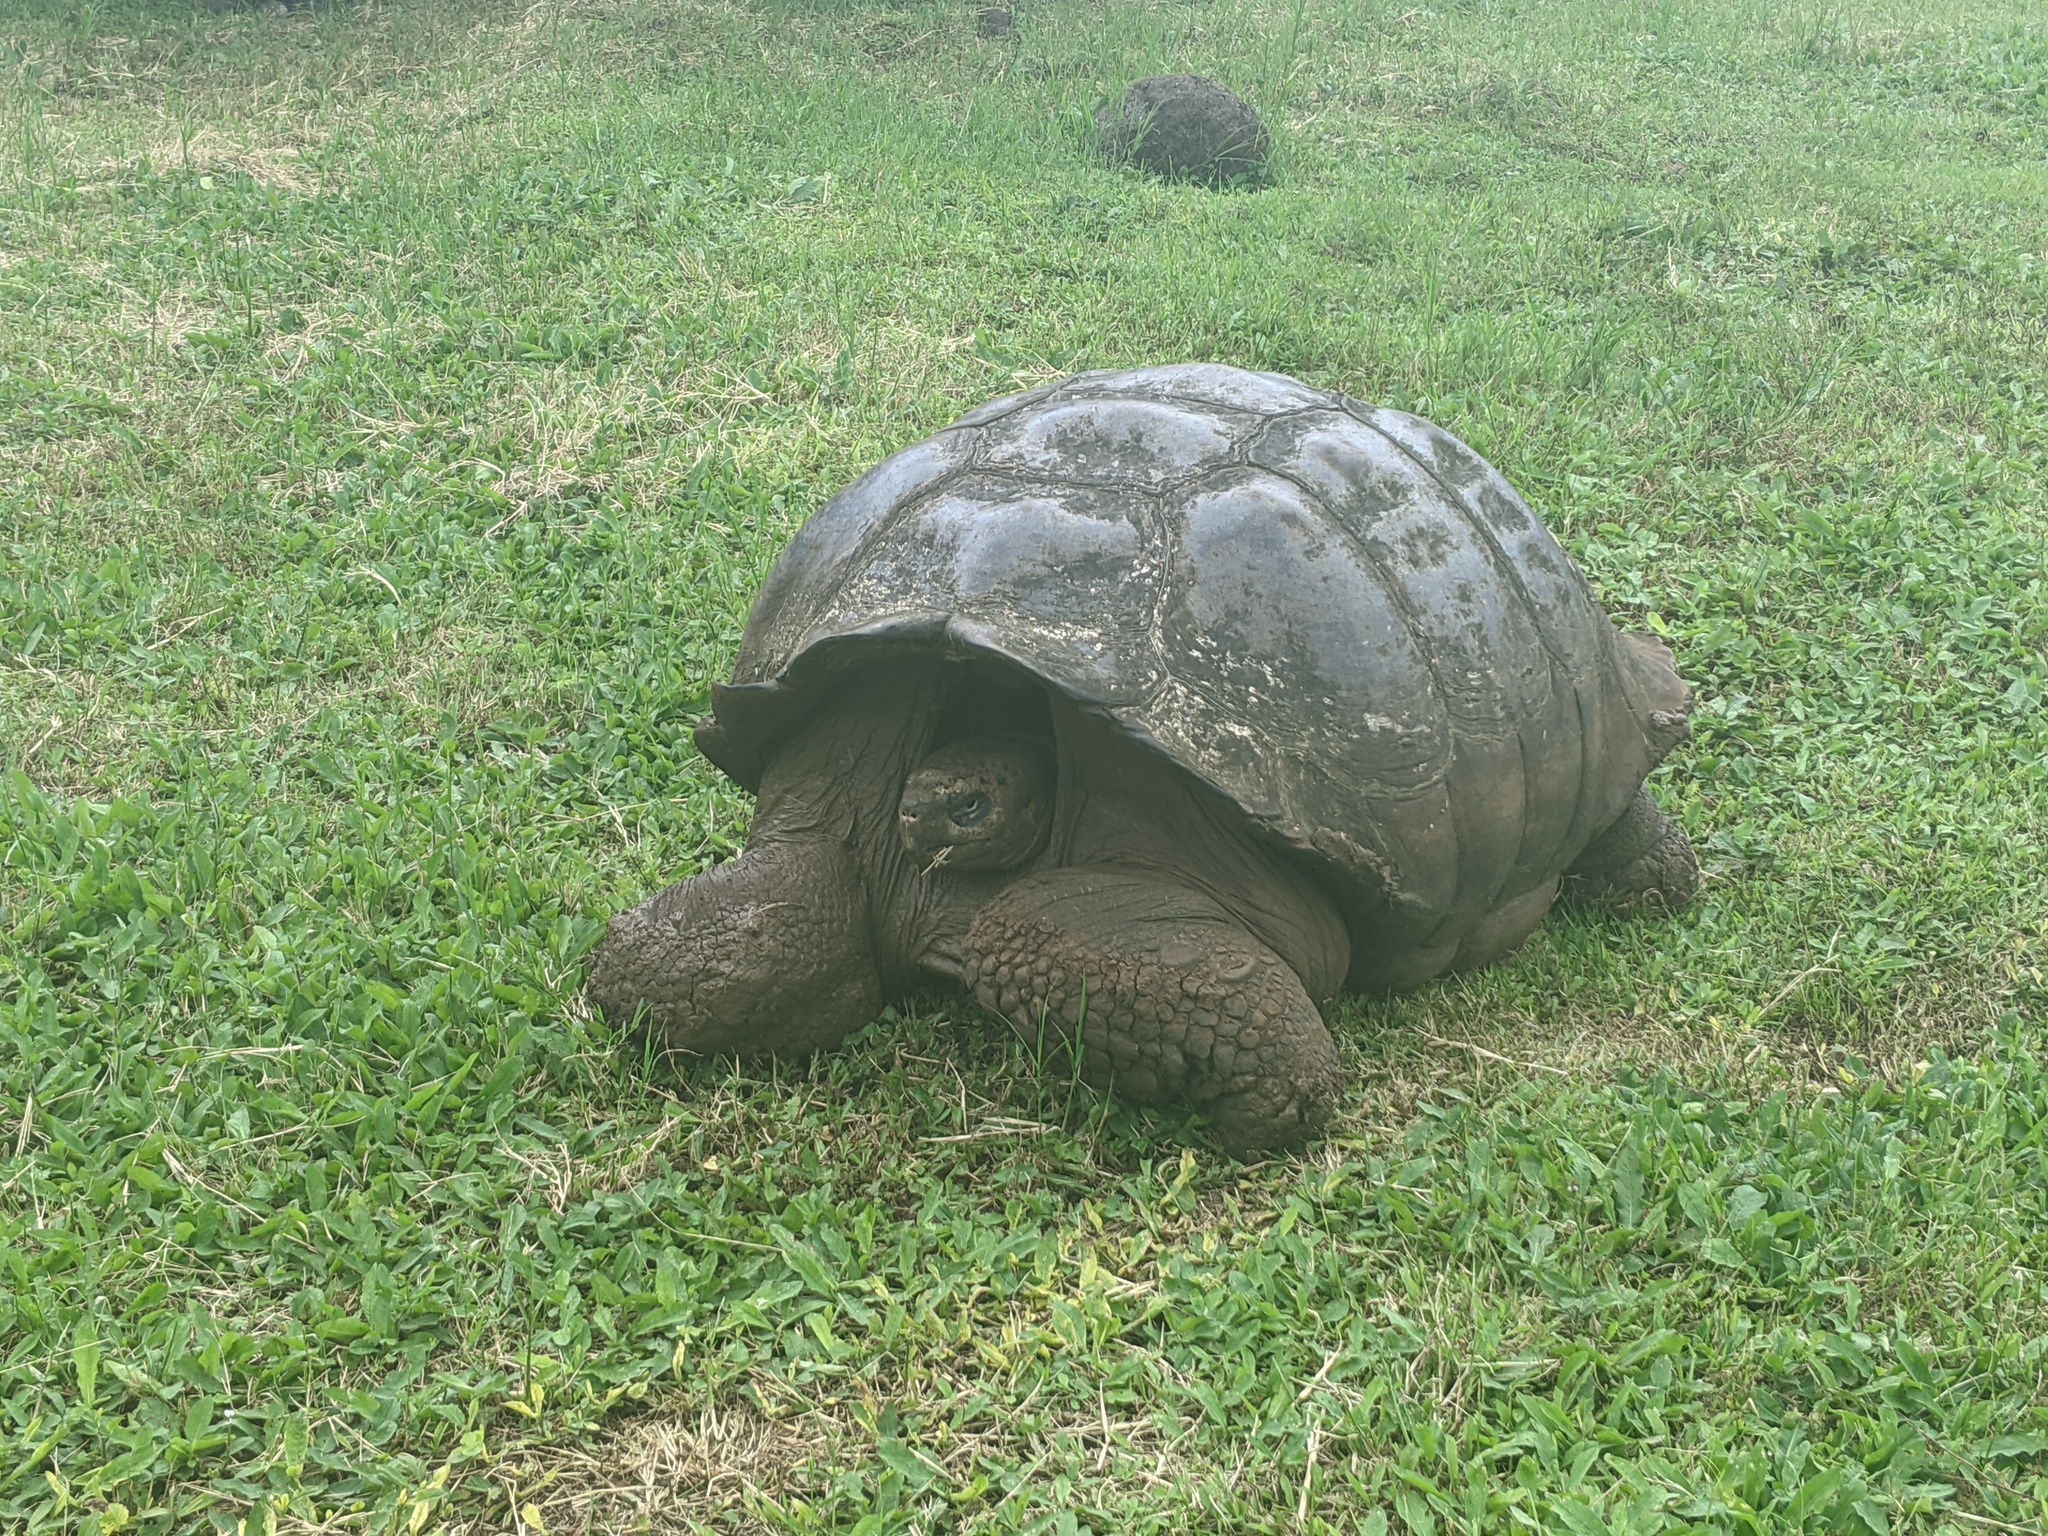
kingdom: Animalia
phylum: Chordata
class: Testudines
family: Testudinidae
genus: Chelonoidis
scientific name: Chelonoidis niger
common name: Charles island giant tortoise
